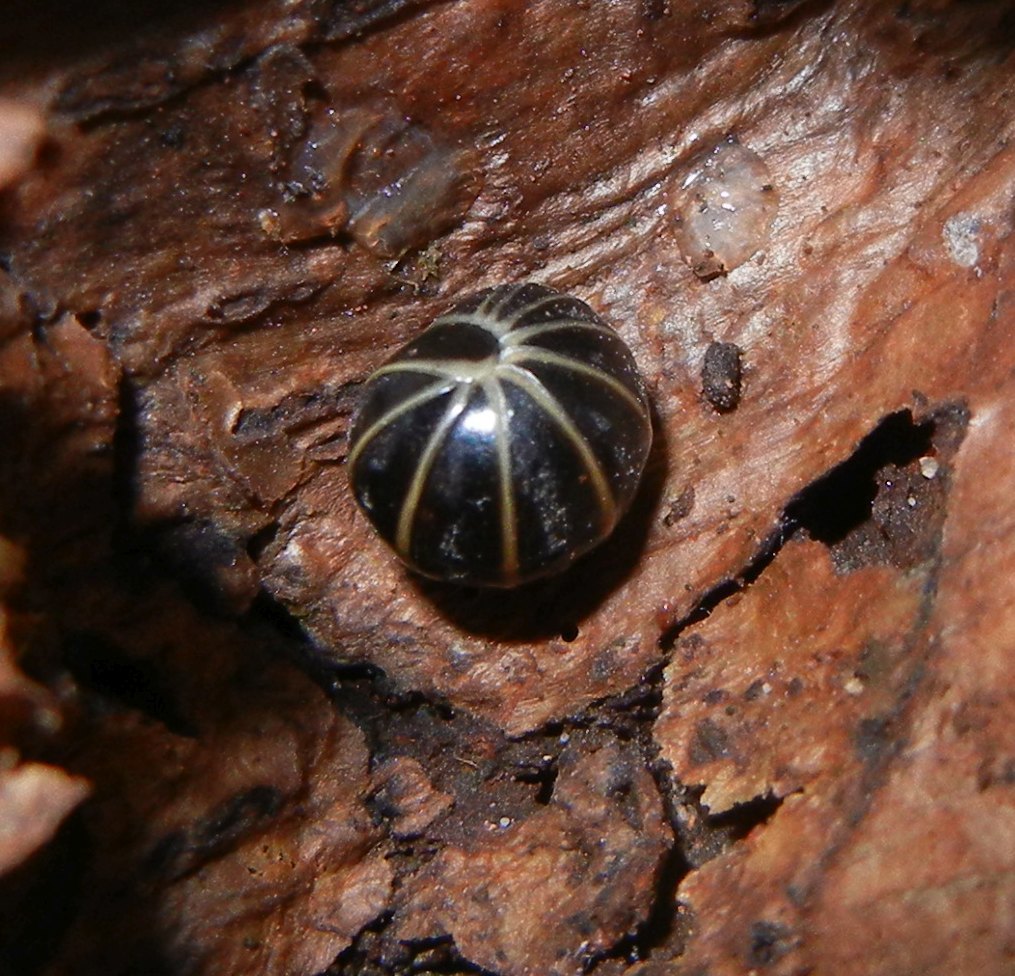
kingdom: Animalia
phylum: Arthropoda
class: Diplopoda
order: Glomerida
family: Glomeridae
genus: Glomeris
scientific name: Glomeris marginata
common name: Bordered pill millipede
